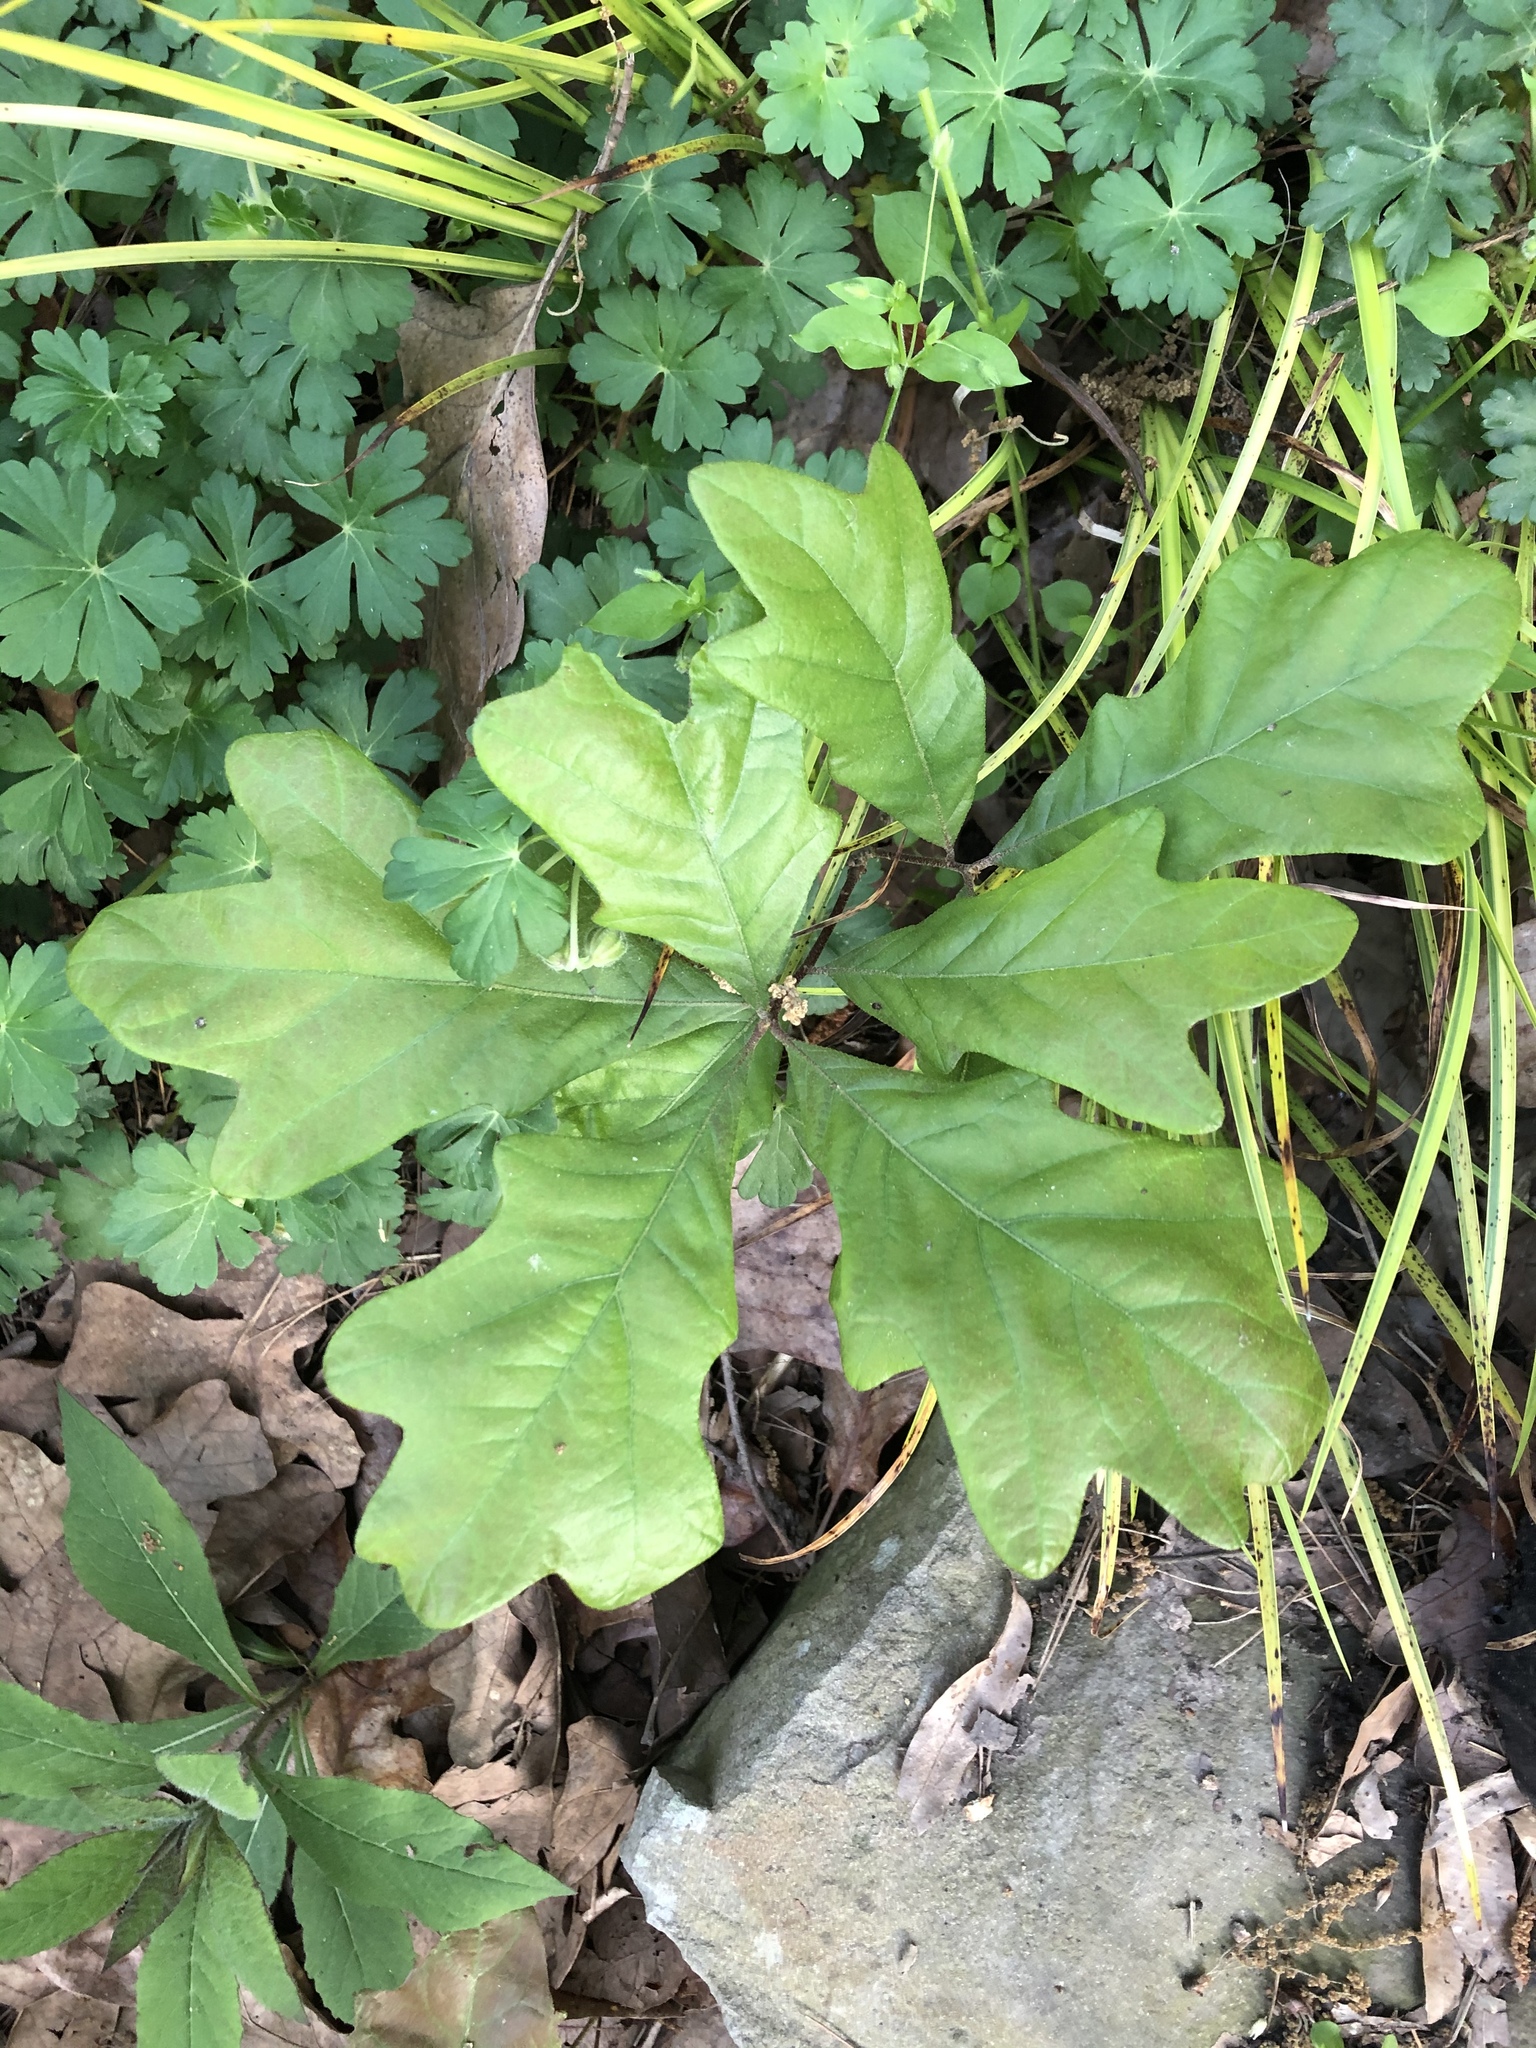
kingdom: Plantae
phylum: Tracheophyta
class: Magnoliopsida
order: Fagales
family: Fagaceae
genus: Quercus
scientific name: Quercus alba
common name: White oak
